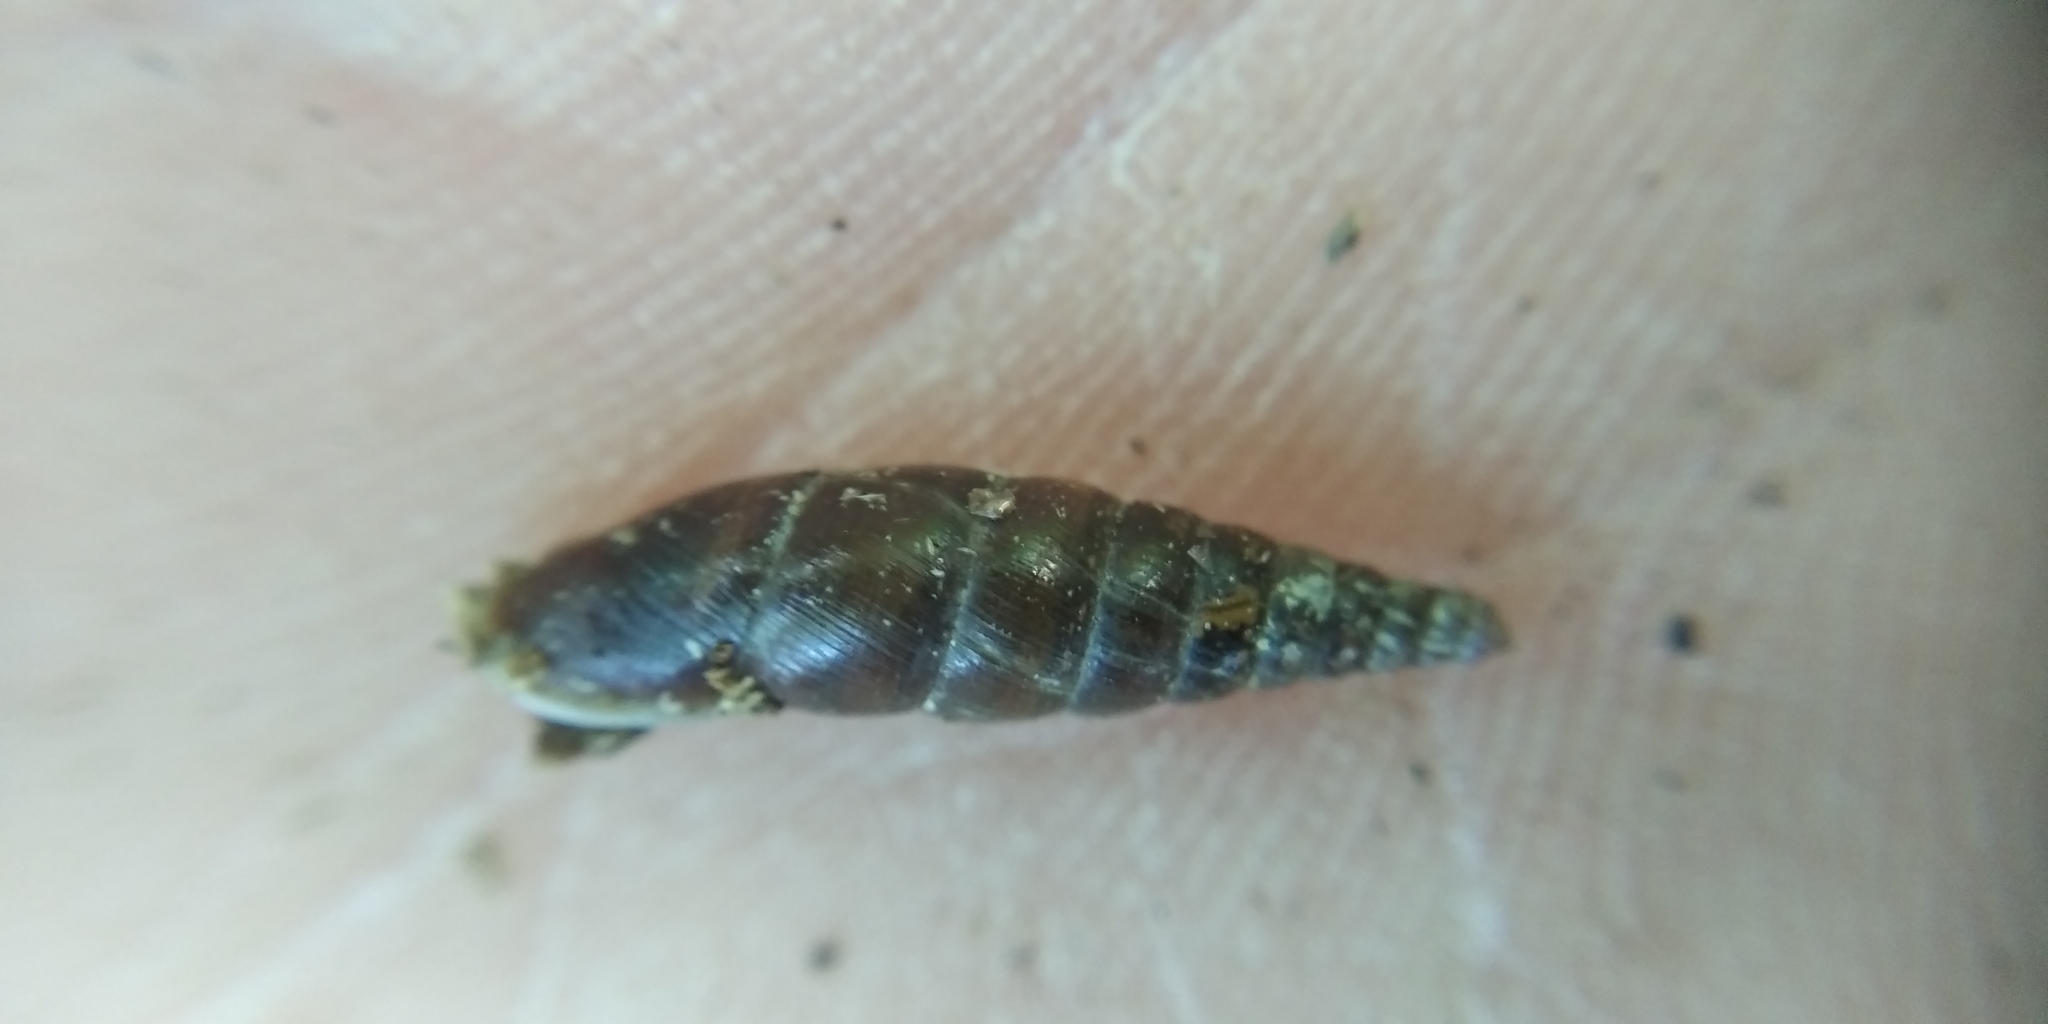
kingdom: Animalia
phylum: Mollusca
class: Gastropoda
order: Stylommatophora
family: Clausiliidae
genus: Cochlodina
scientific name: Cochlodina laminata
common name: Plaited door snail
